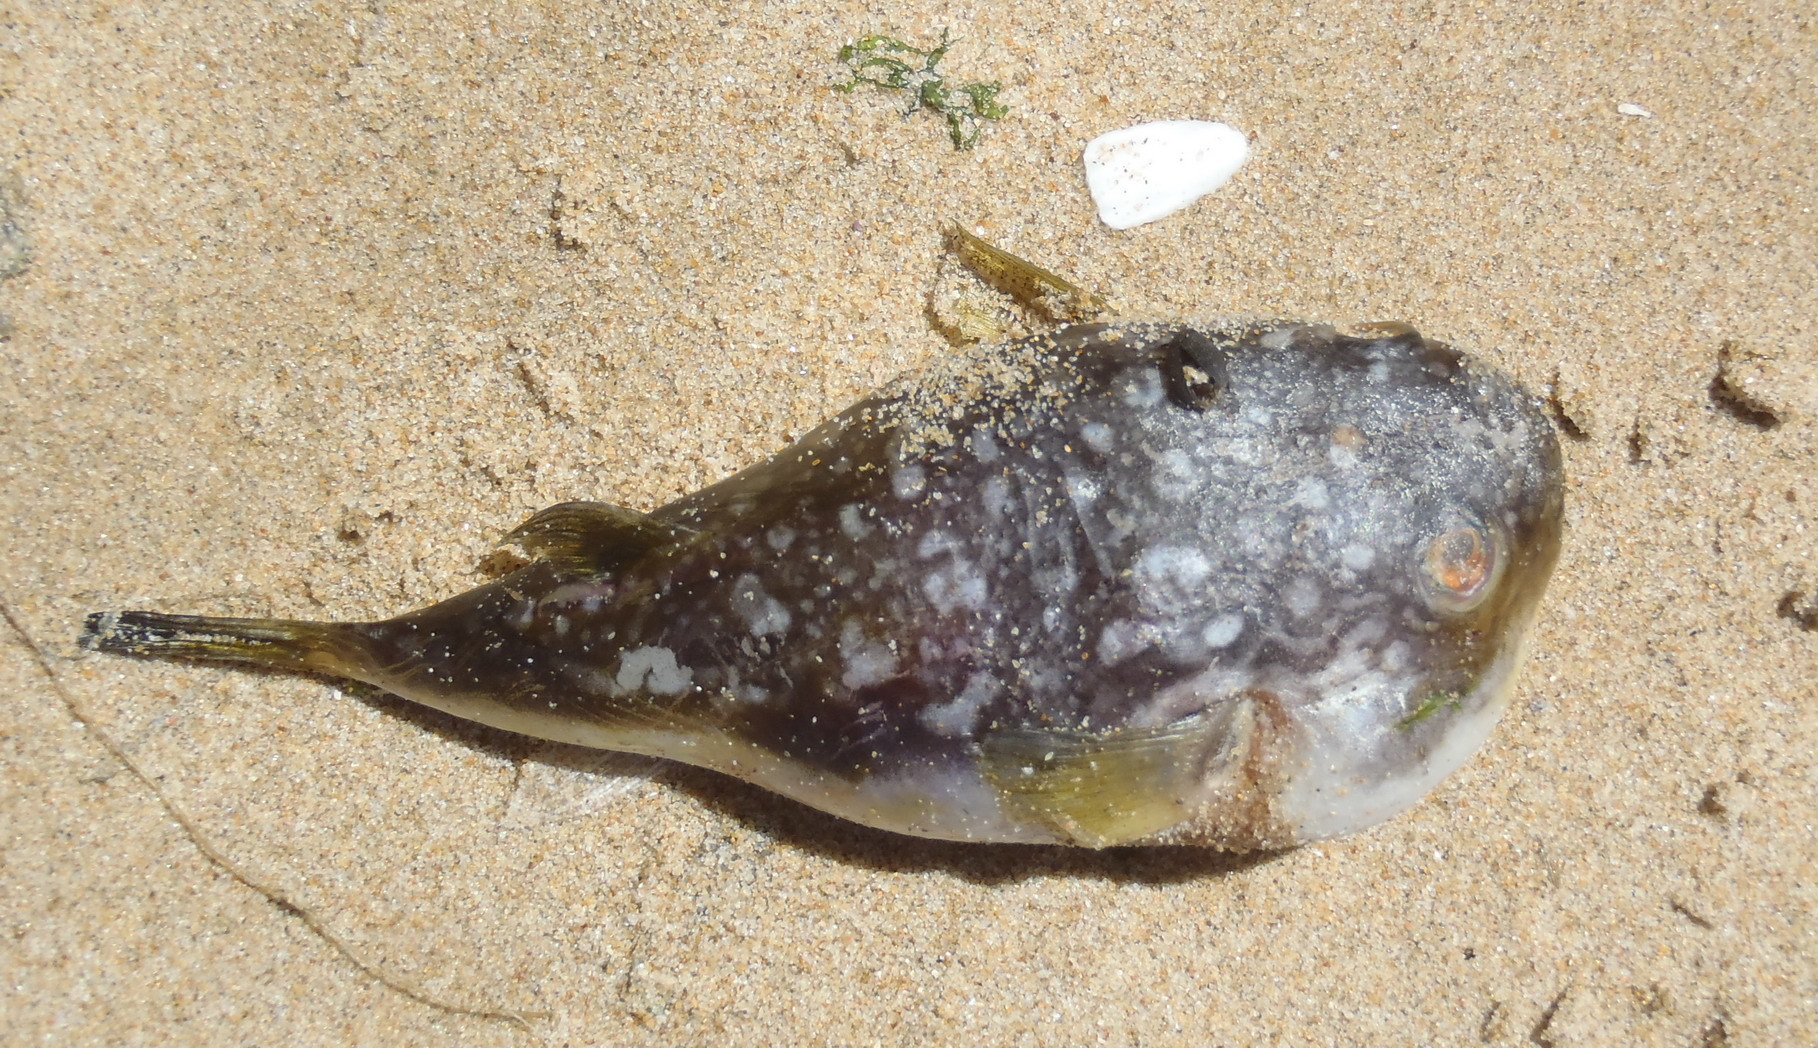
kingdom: Animalia
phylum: Chordata
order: Tetraodontiformes
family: Tetraodontidae
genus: Amblyrhynchote
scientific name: Amblyrhynchote honckenii
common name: Evileye blaasop
